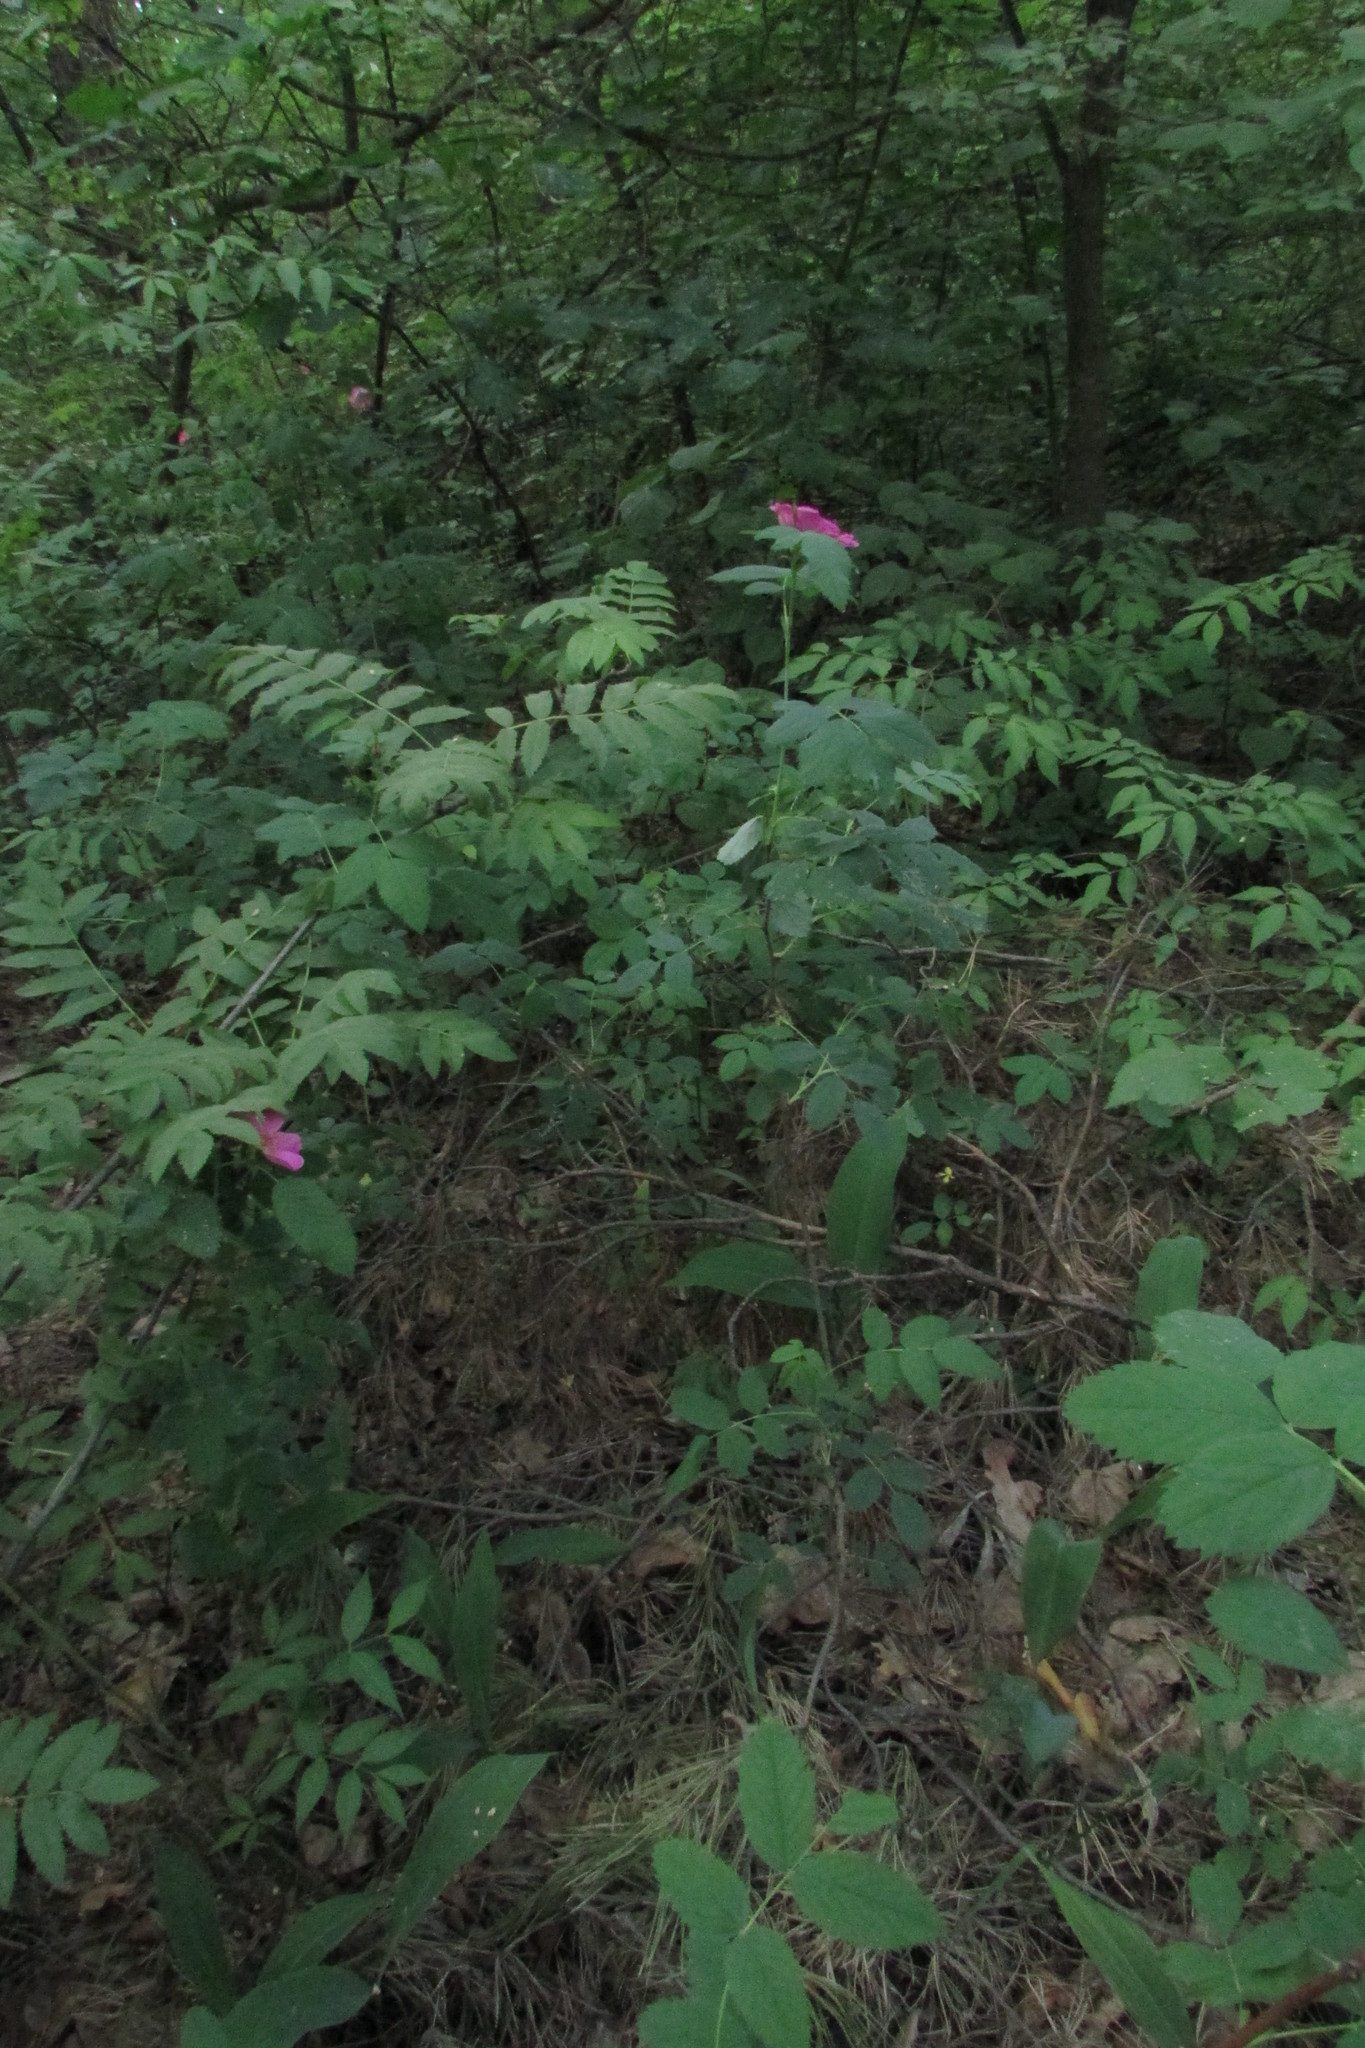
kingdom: Plantae
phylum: Tracheophyta
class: Magnoliopsida
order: Rosales
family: Rosaceae
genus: Rosa
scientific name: Rosa majalis
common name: Cinnamon rose
